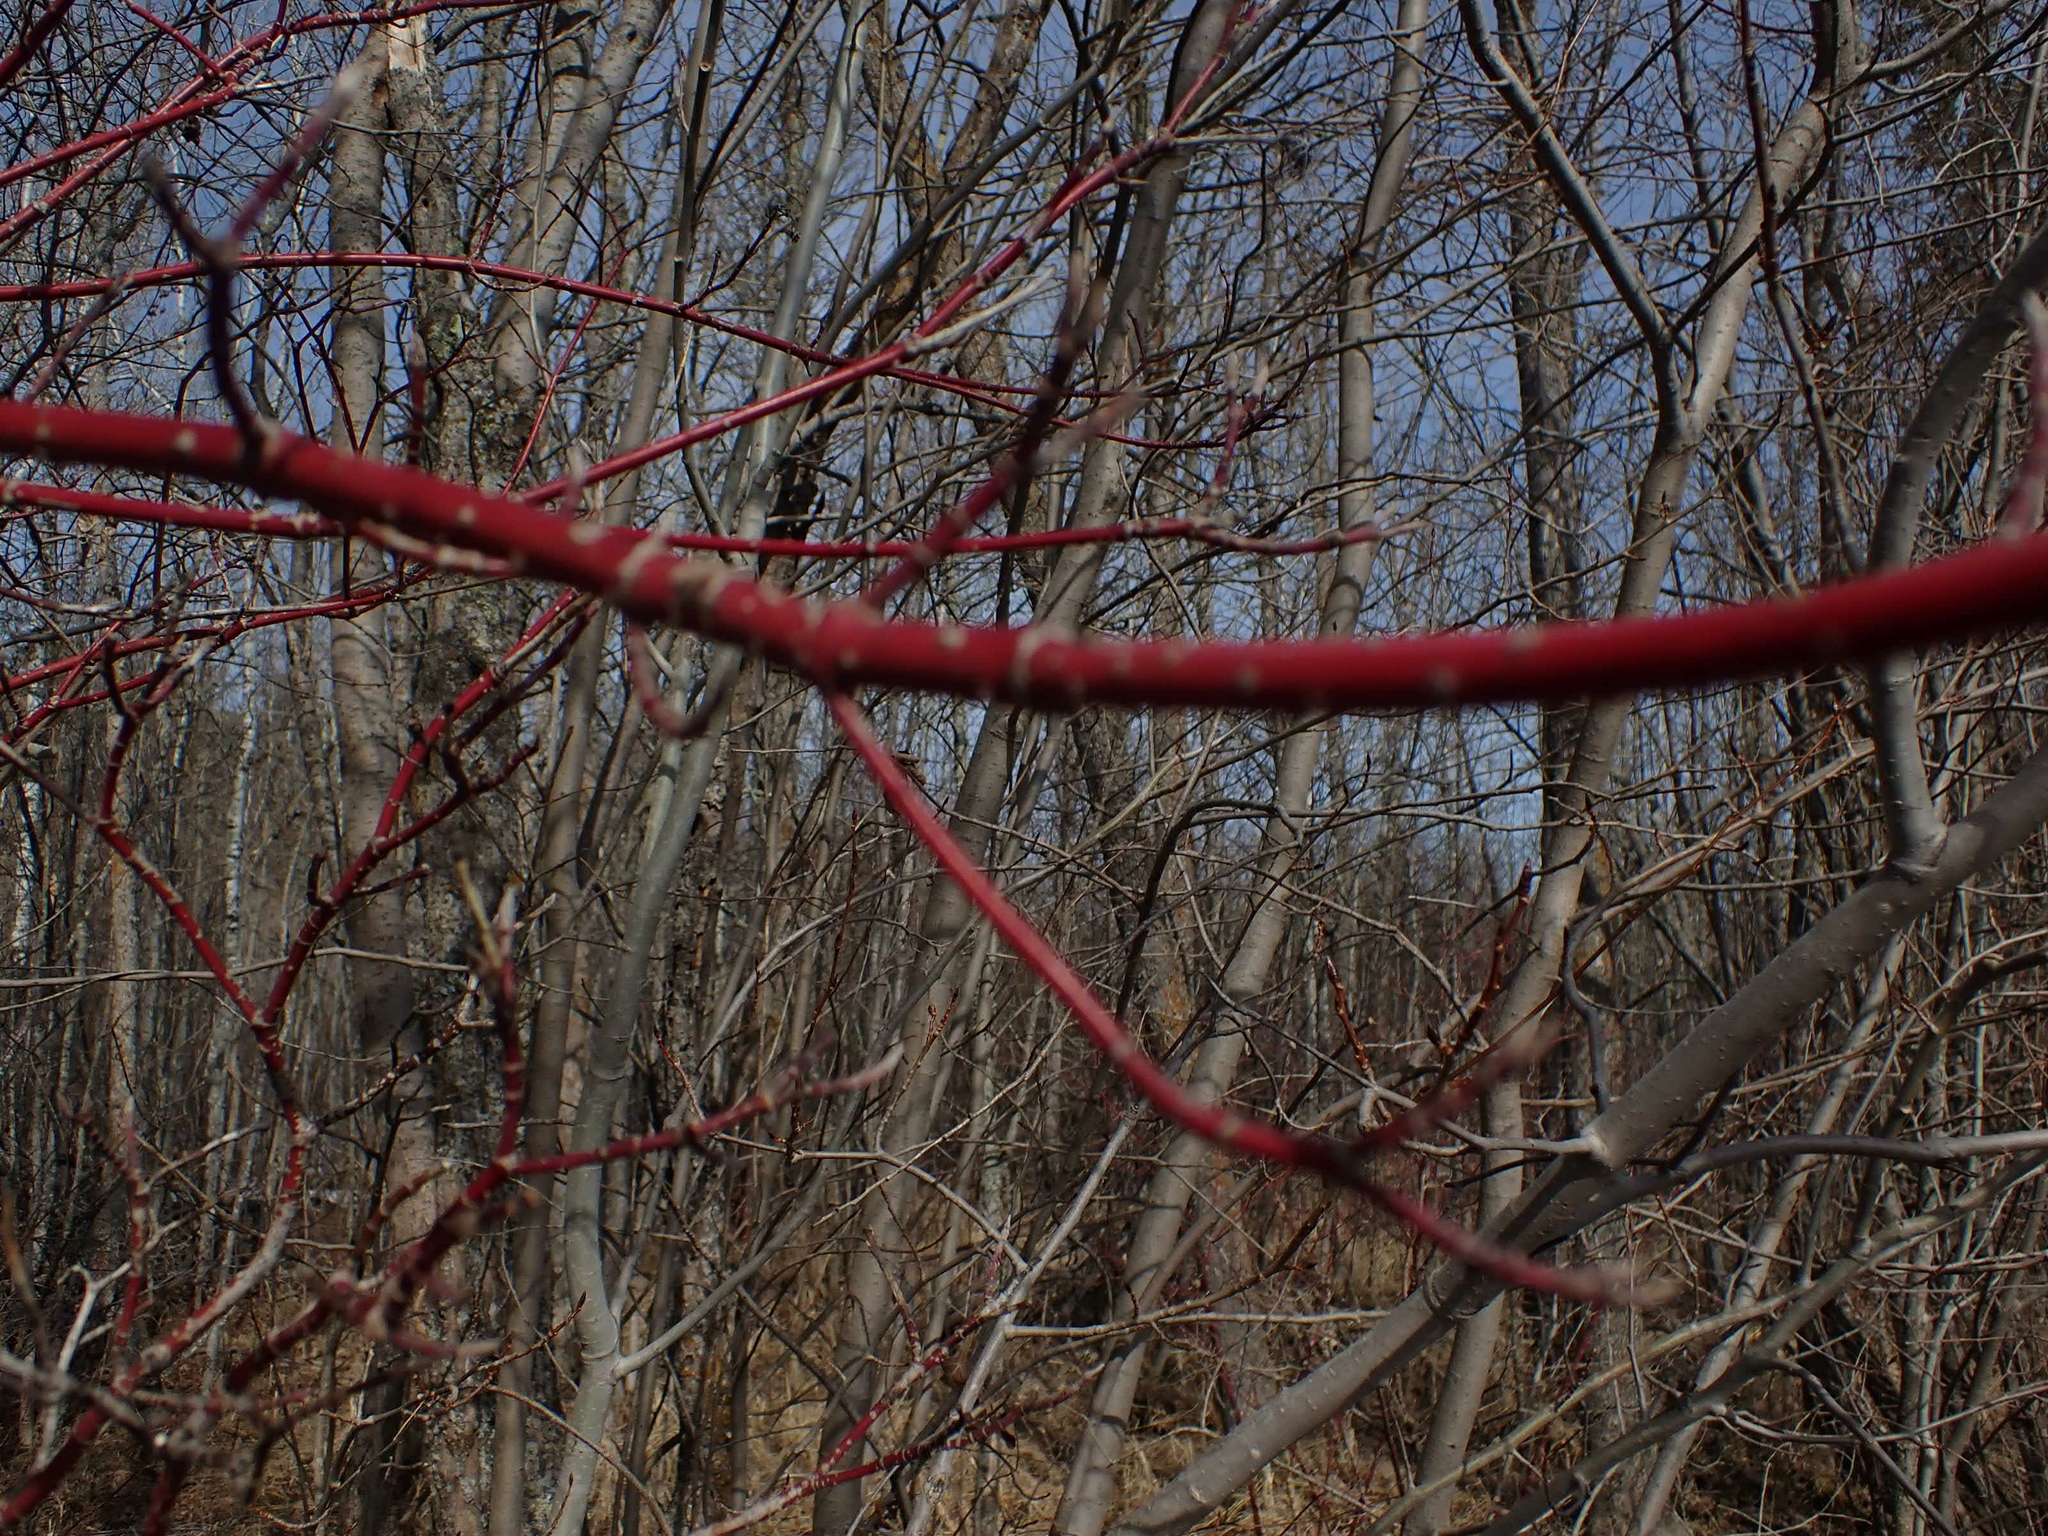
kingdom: Plantae
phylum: Tracheophyta
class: Magnoliopsida
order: Cornales
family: Cornaceae
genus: Cornus
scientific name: Cornus sericea
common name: Red-osier dogwood
